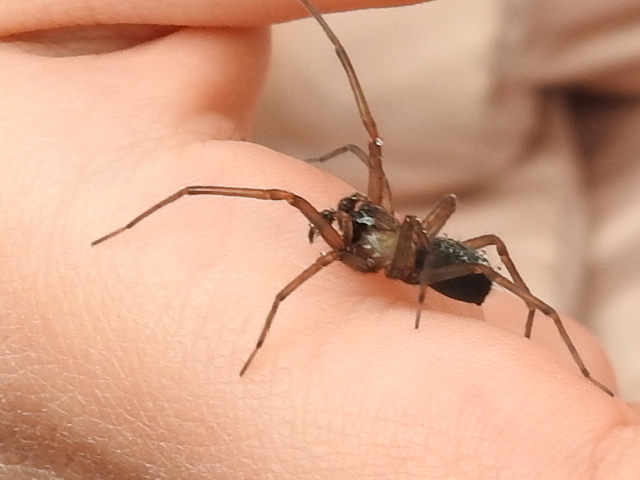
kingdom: Animalia
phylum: Arthropoda
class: Arachnida
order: Araneae
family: Desidae
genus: Metaltella
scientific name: Metaltella simoni
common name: Cribellate spider
